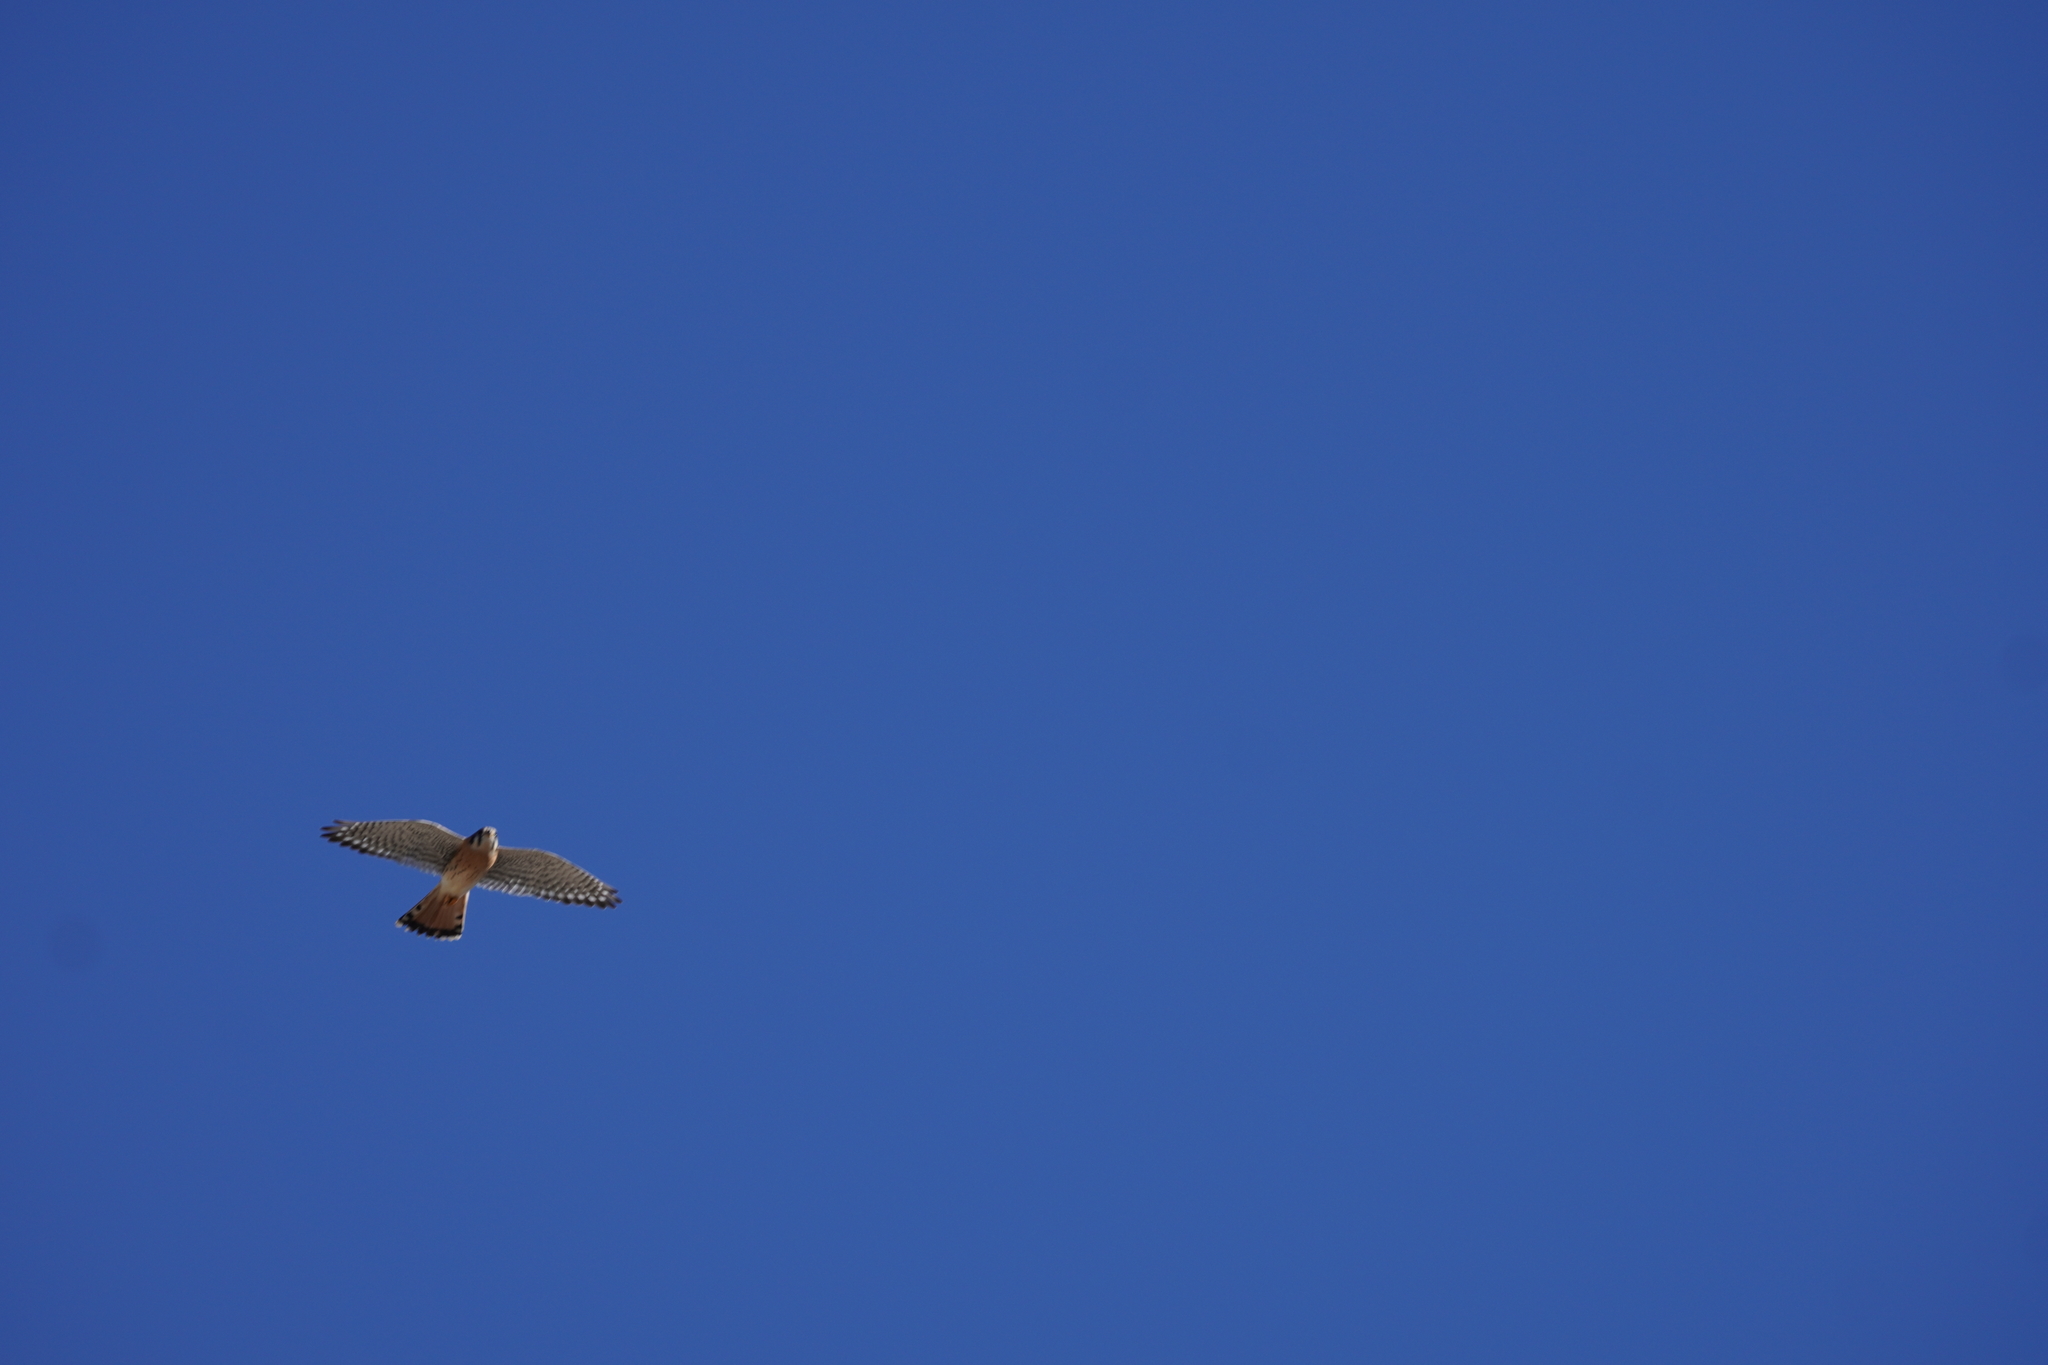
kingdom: Animalia
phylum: Chordata
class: Aves
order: Falconiformes
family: Falconidae
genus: Falco
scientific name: Falco sparverius
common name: American kestrel
